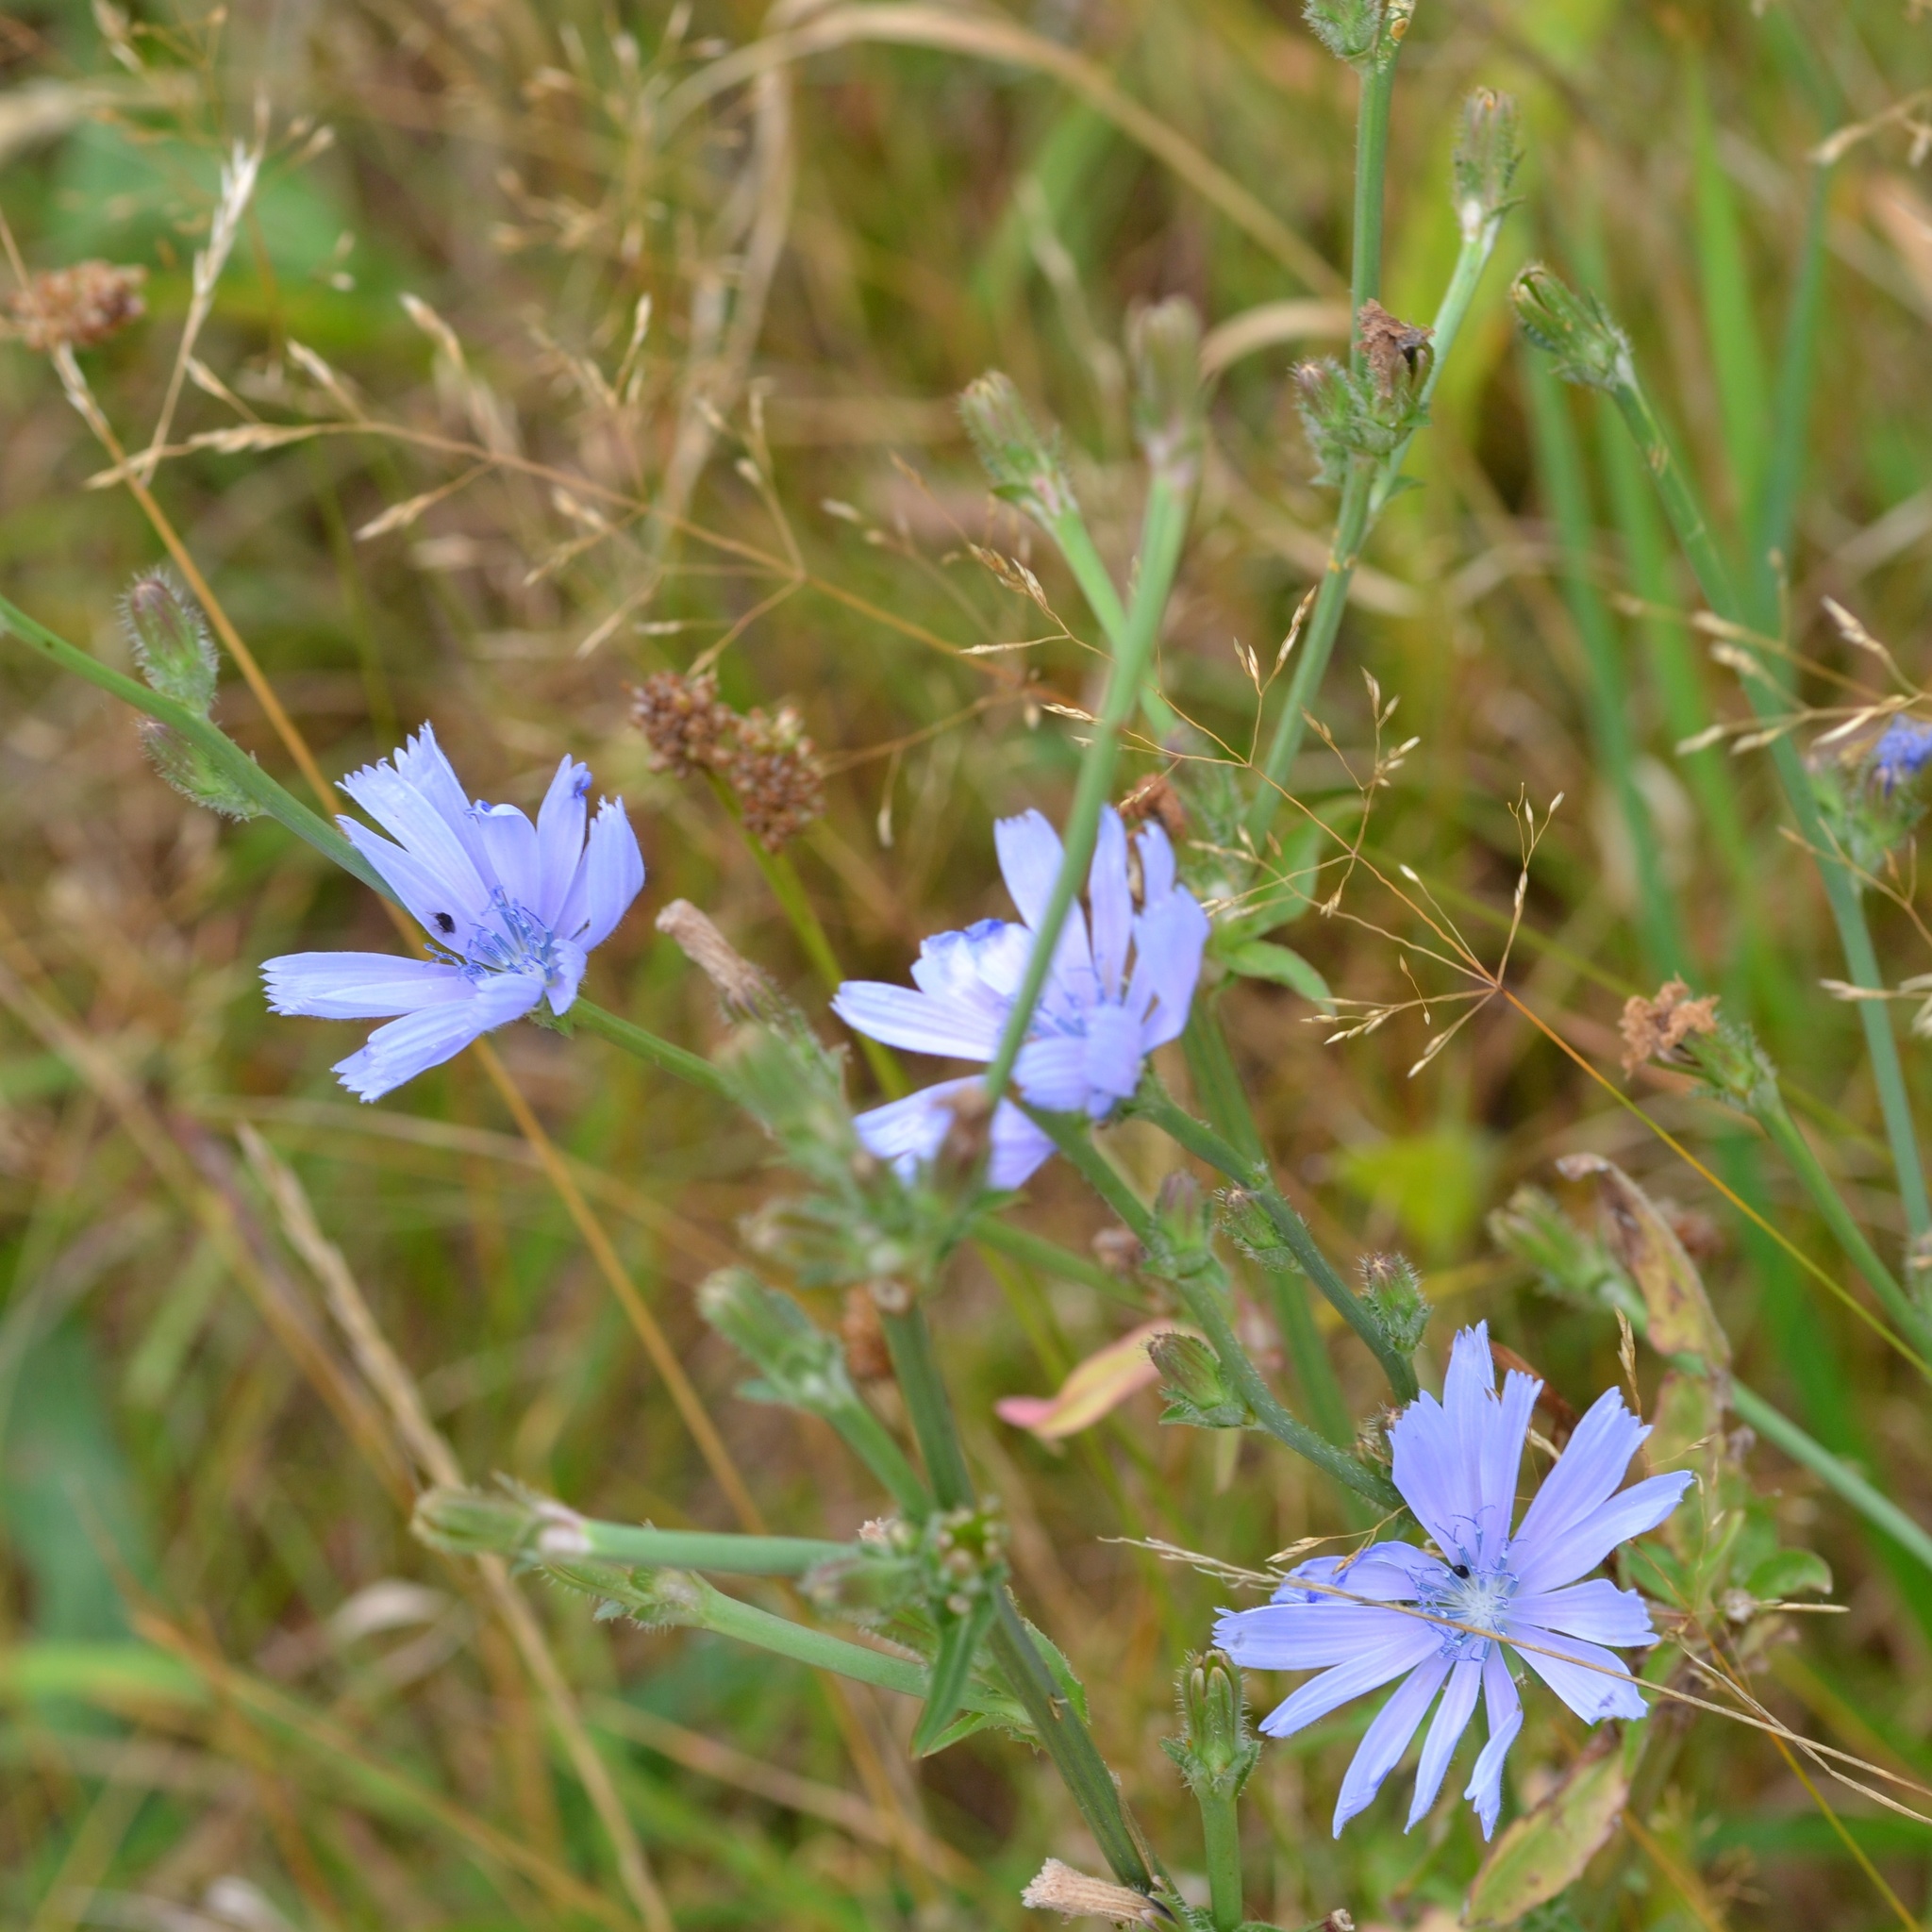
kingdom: Plantae
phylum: Tracheophyta
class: Magnoliopsida
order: Asterales
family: Asteraceae
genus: Cichorium
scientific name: Cichorium intybus
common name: Chicory
